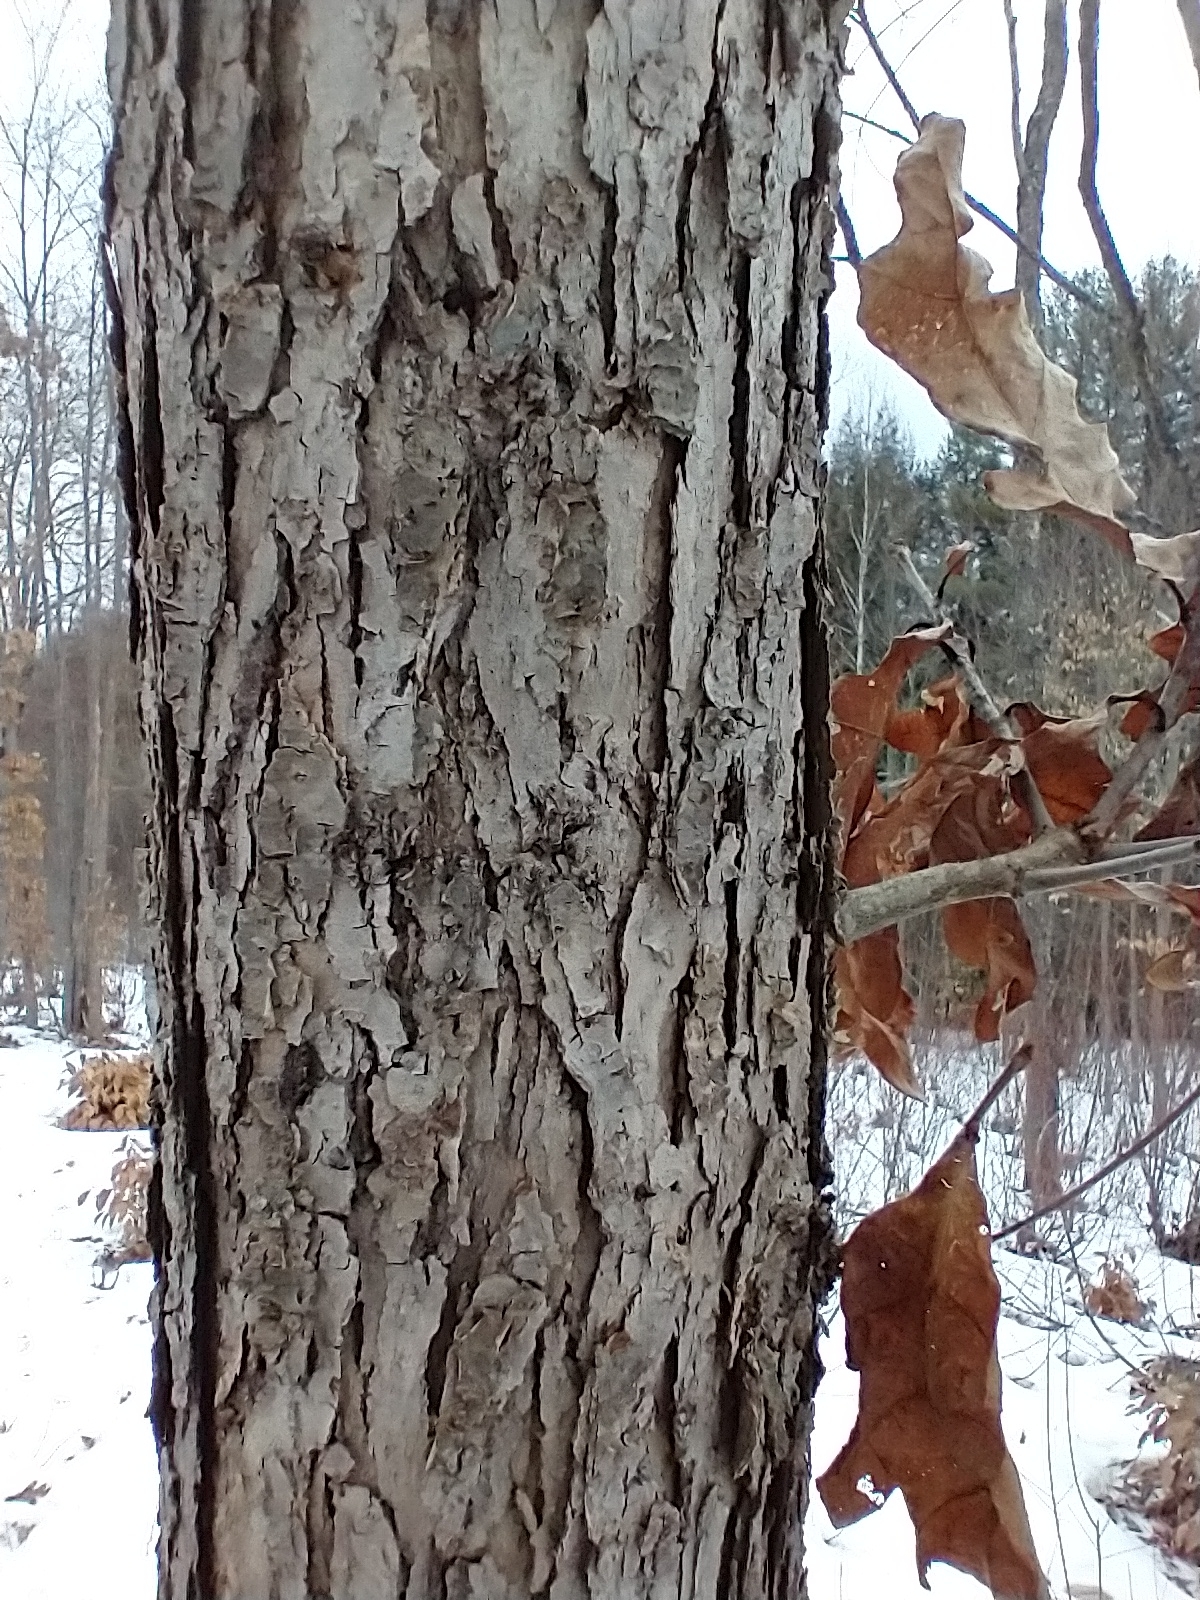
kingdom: Plantae
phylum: Tracheophyta
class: Magnoliopsida
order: Fagales
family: Fagaceae
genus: Quercus
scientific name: Quercus alba
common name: White oak
